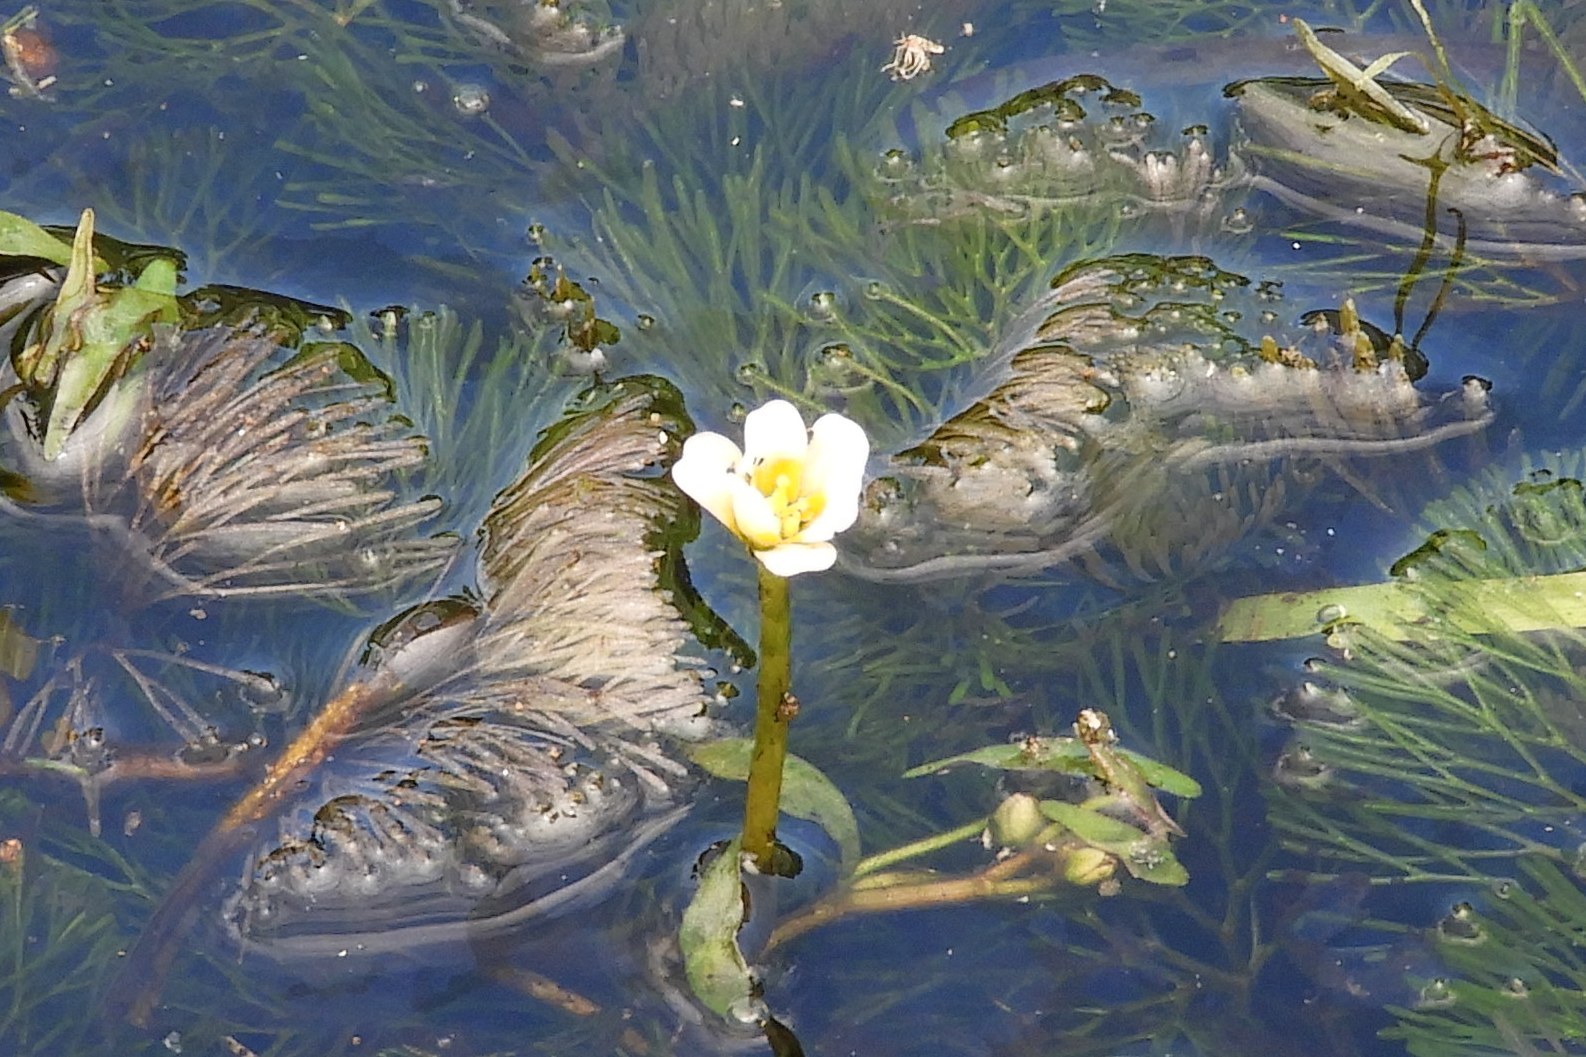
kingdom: Plantae
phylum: Tracheophyta
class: Magnoliopsida
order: Nymphaeales
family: Cabombaceae
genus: Cabomba
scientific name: Cabomba caroliniana
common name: Fanwort
